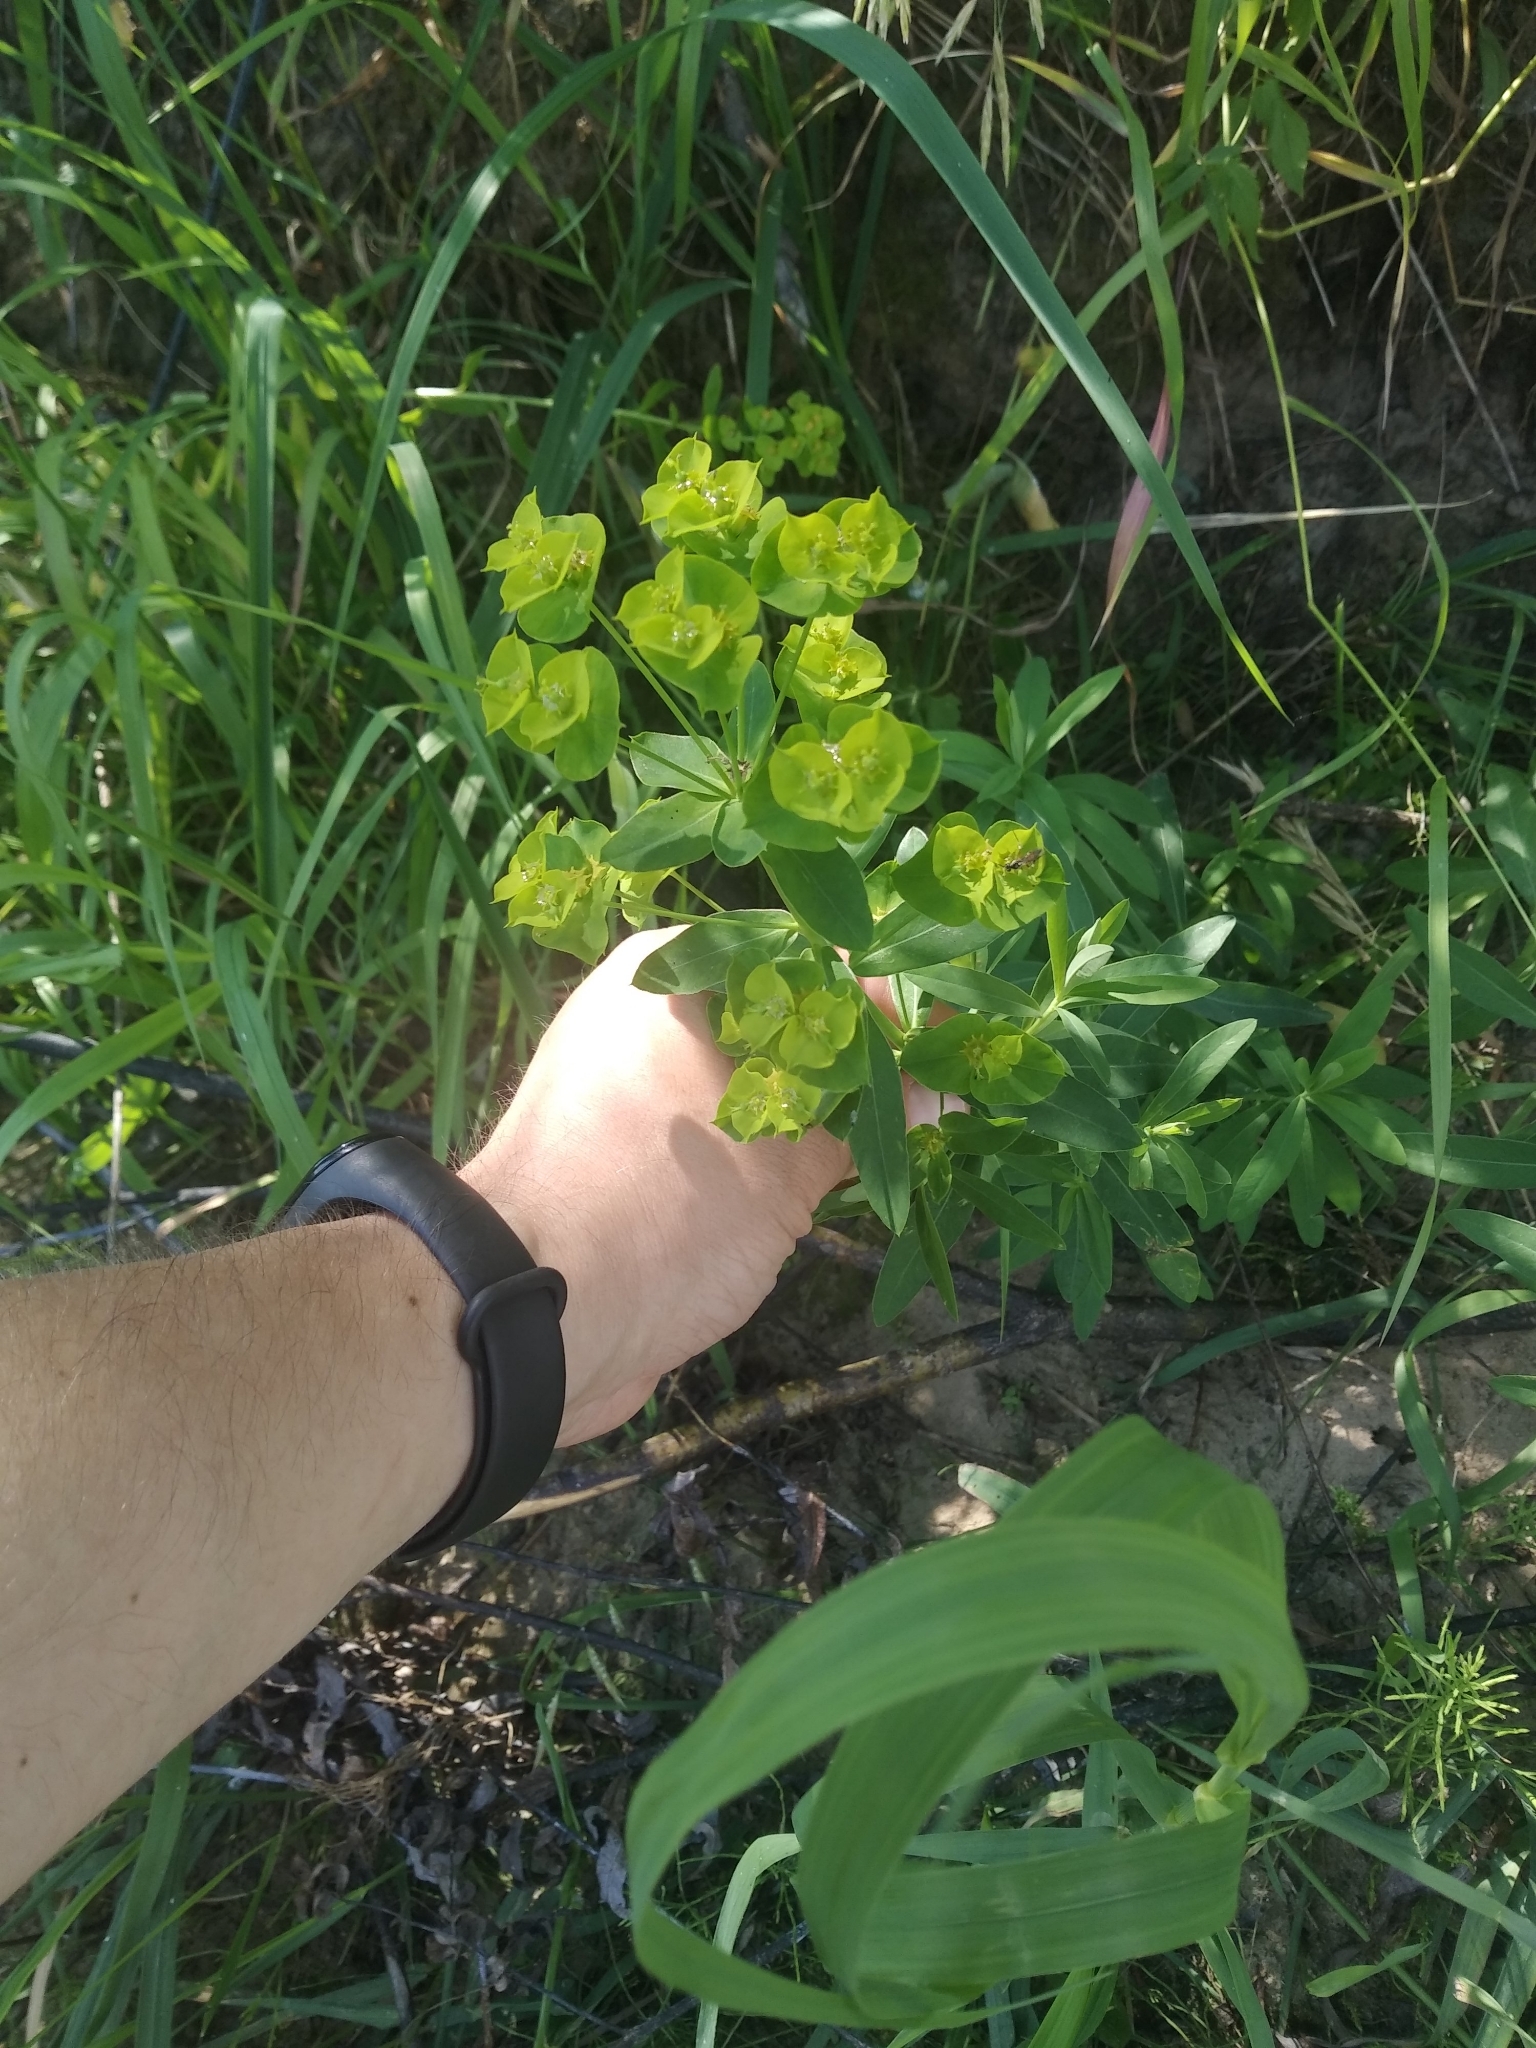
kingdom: Plantae
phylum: Tracheophyta
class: Magnoliopsida
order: Malpighiales
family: Euphorbiaceae
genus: Euphorbia
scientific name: Euphorbia esula
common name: Leafy spurge
